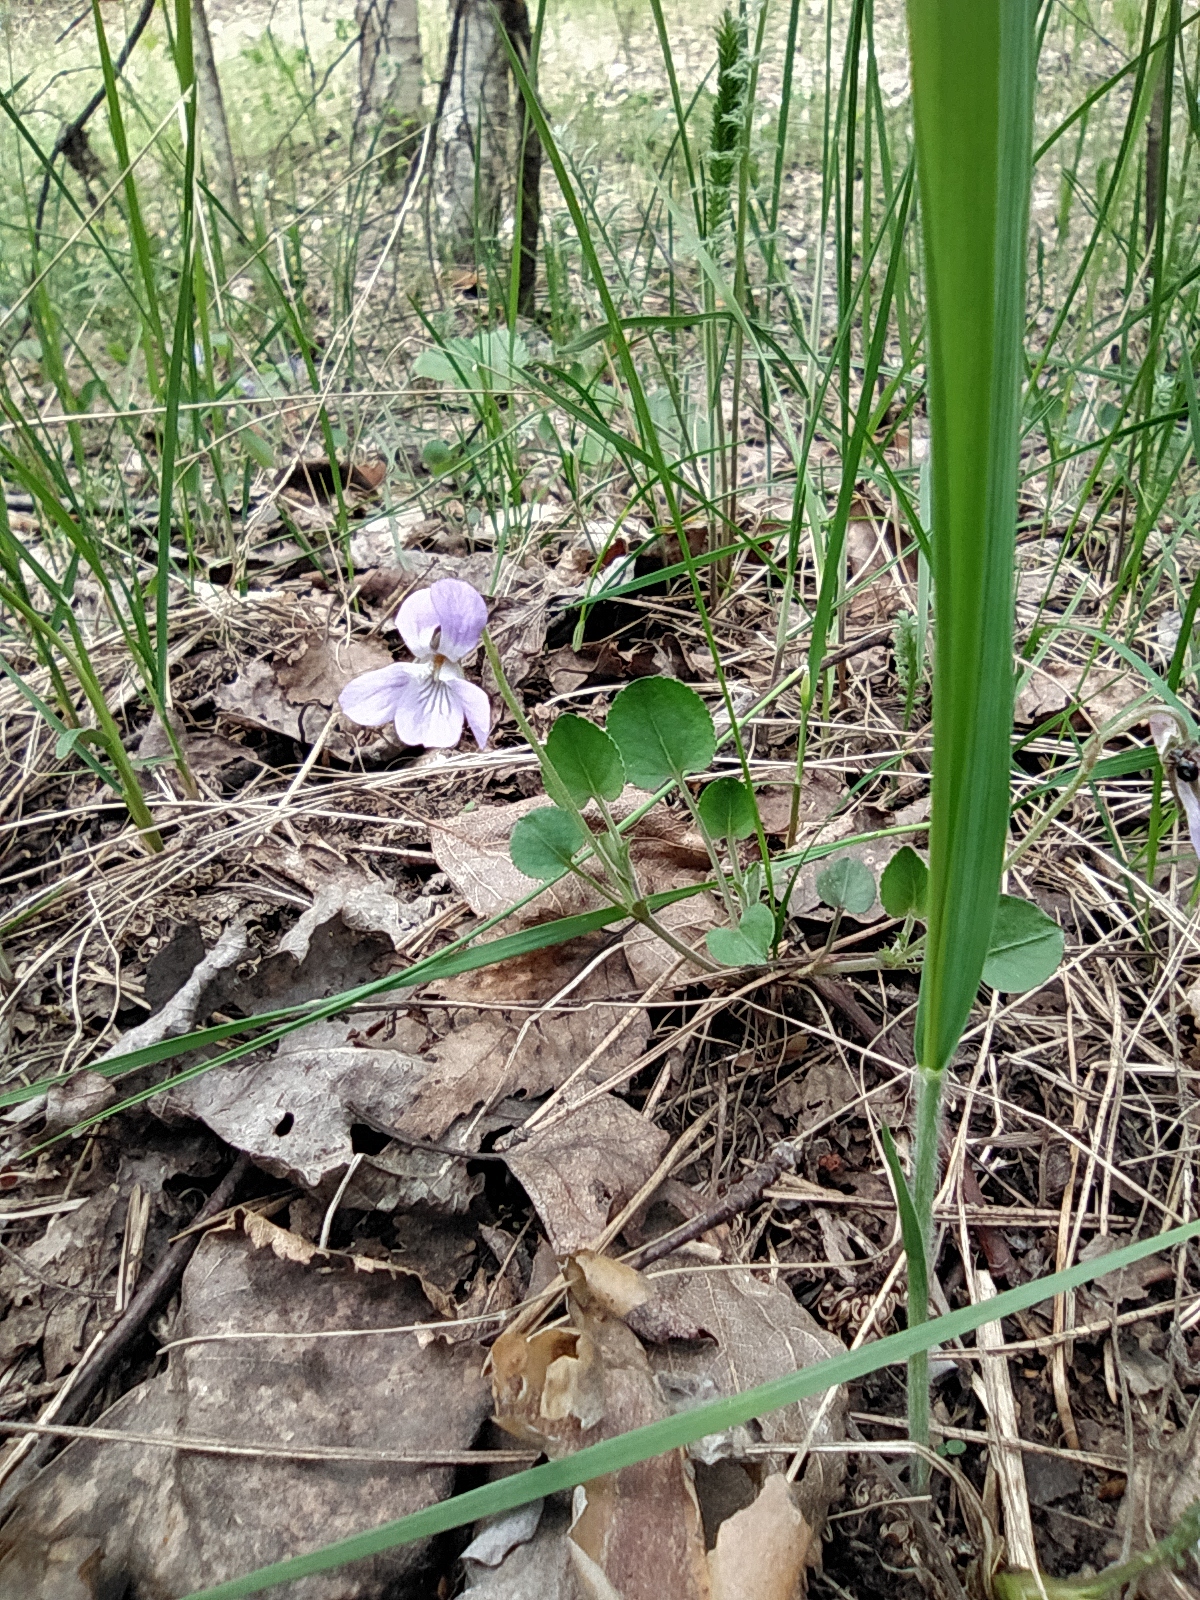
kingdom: Plantae
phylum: Tracheophyta
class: Magnoliopsida
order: Malpighiales
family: Violaceae
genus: Viola
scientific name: Viola rupestris
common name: Teesdale violet
